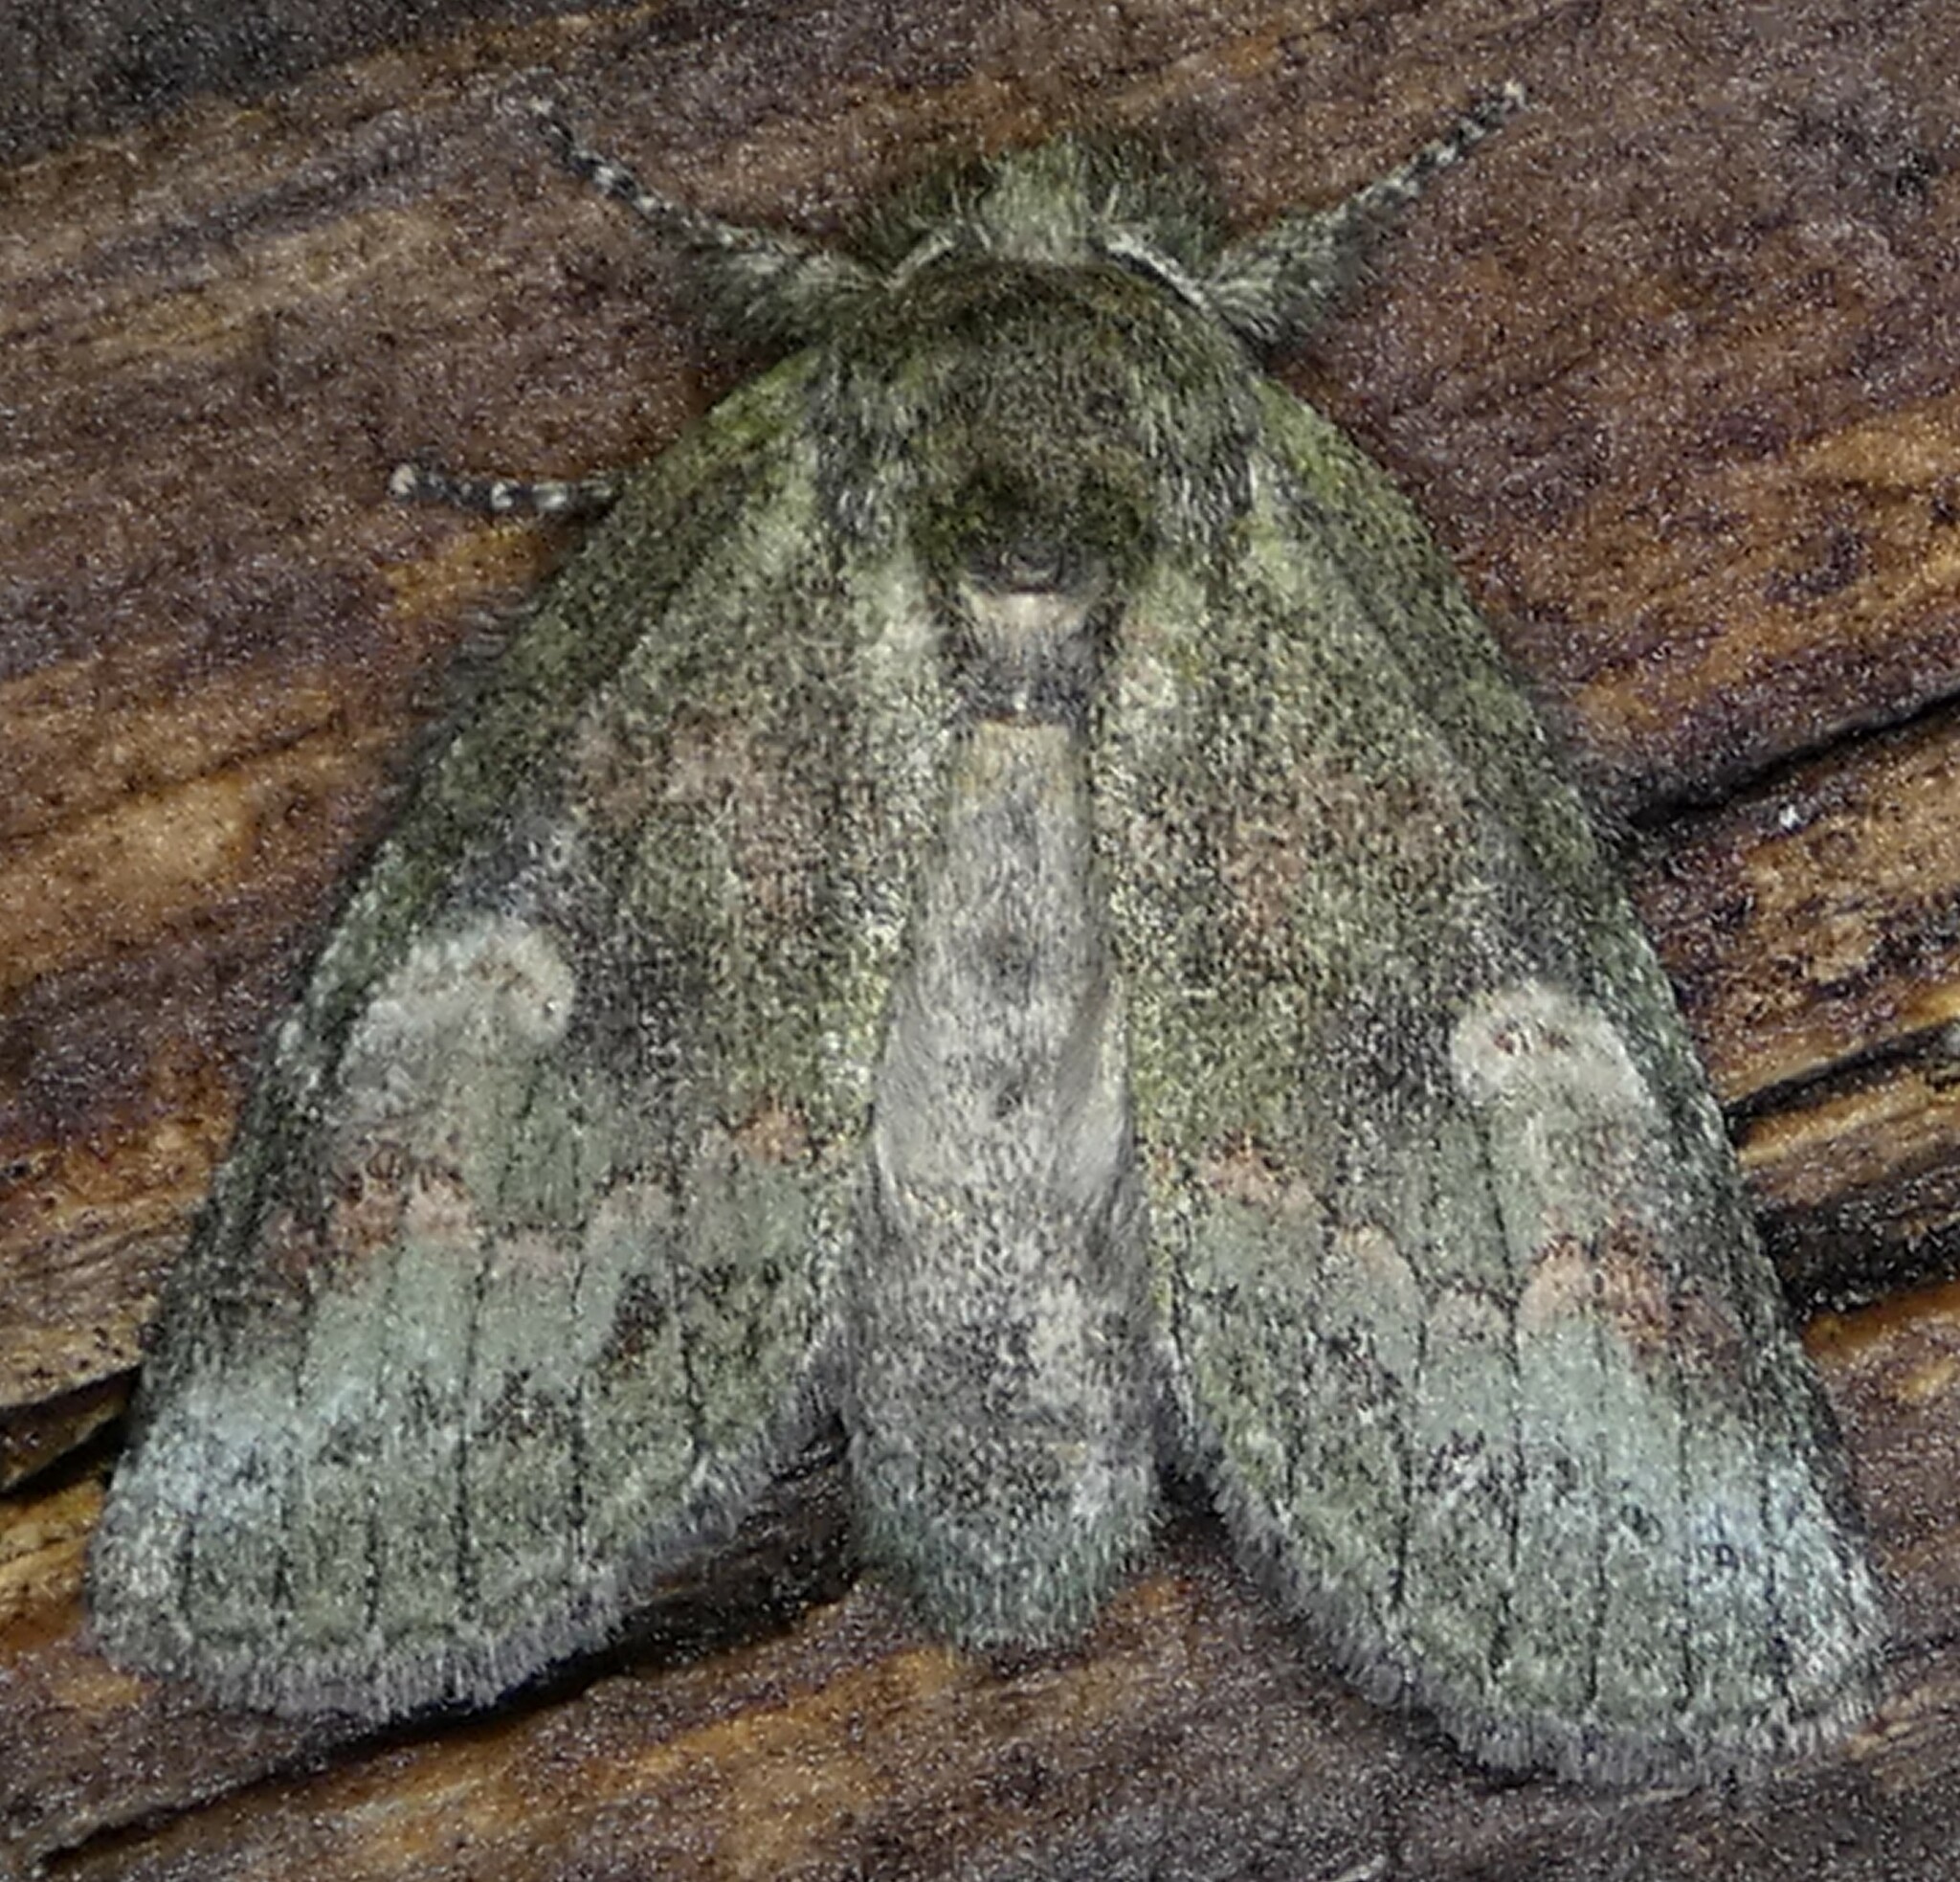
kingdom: Animalia
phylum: Arthropoda
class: Insecta
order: Lepidoptera
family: Notodontidae
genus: Disphragis
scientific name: Disphragis Cecrita guttivitta
